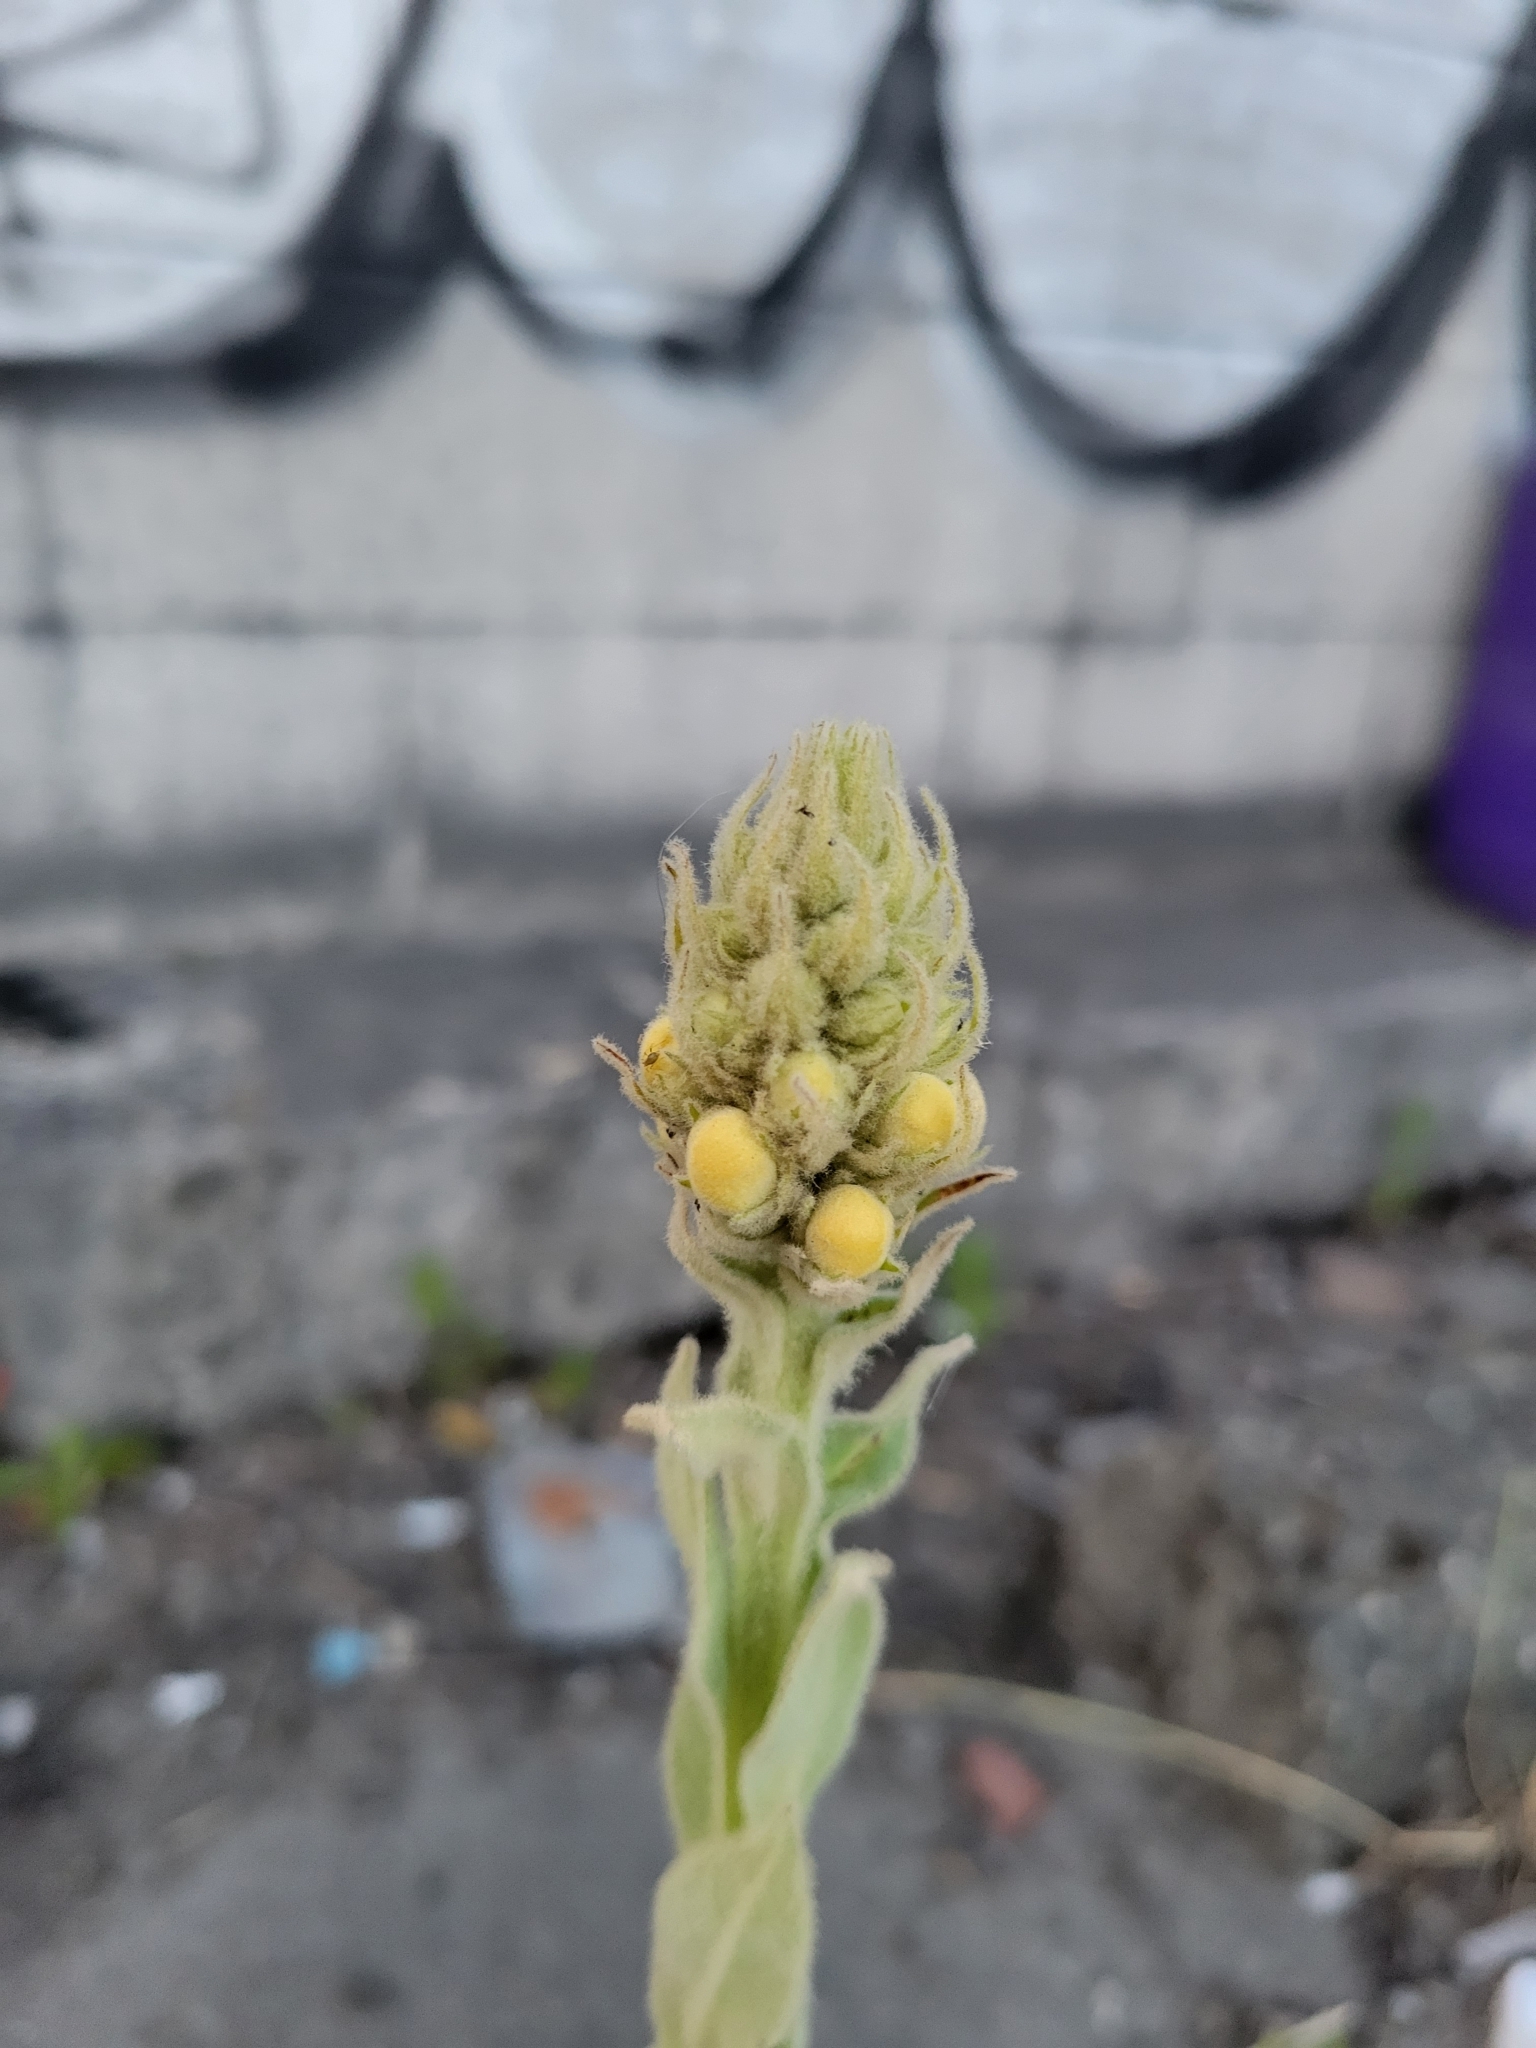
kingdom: Plantae
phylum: Tracheophyta
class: Magnoliopsida
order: Lamiales
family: Scrophulariaceae
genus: Verbascum
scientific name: Verbascum thapsus
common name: Common mullein
